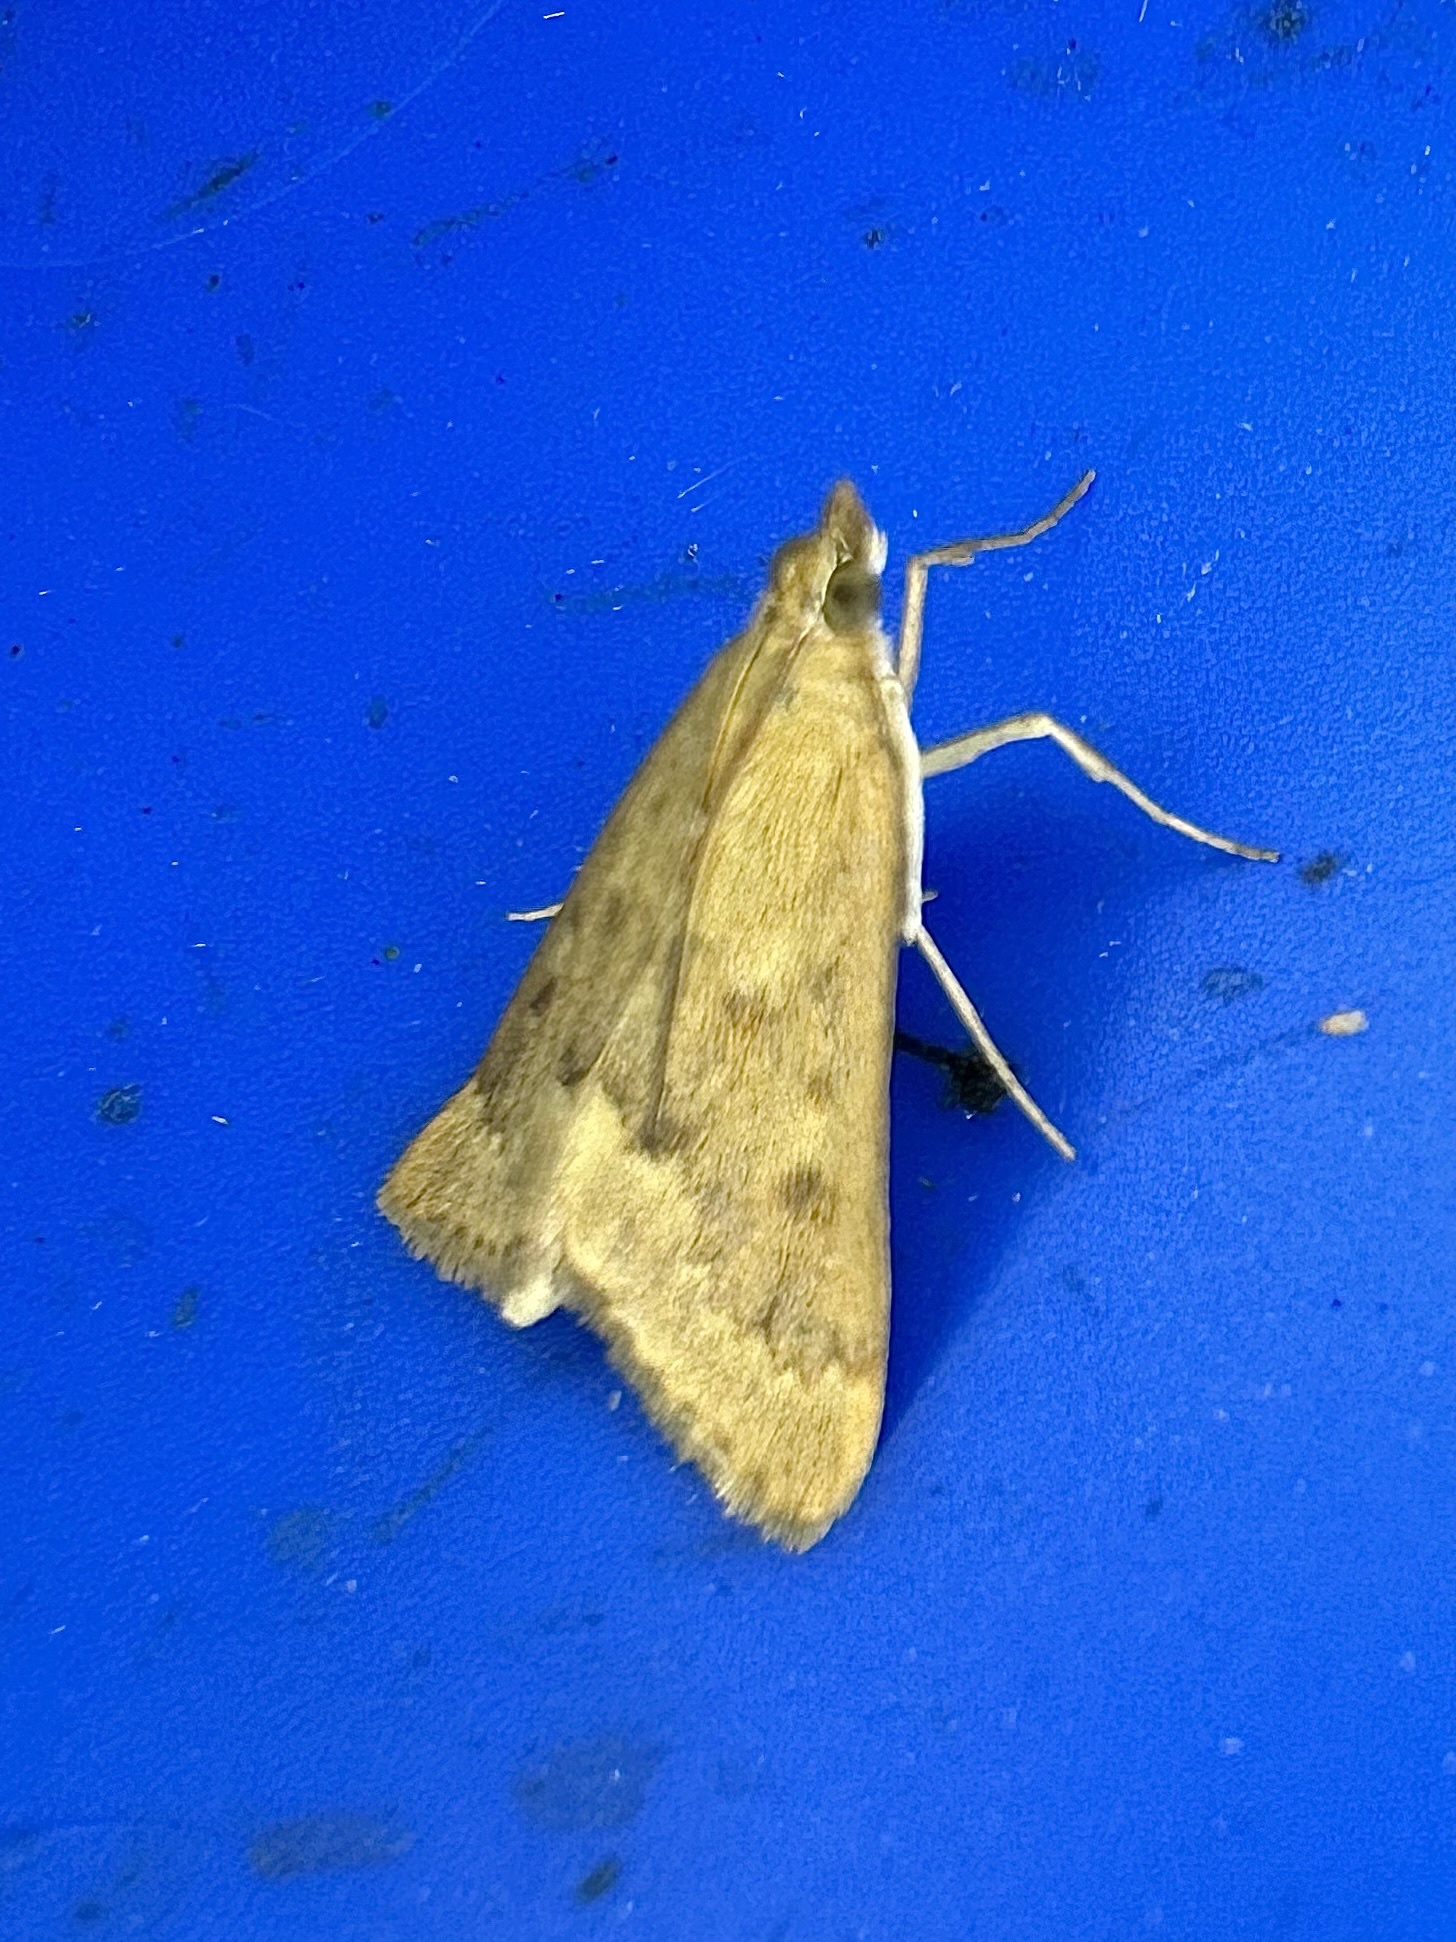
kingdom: Animalia
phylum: Arthropoda
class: Insecta
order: Lepidoptera
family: Crambidae
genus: Achyra
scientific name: Achyra rantalis
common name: Garden webworm
